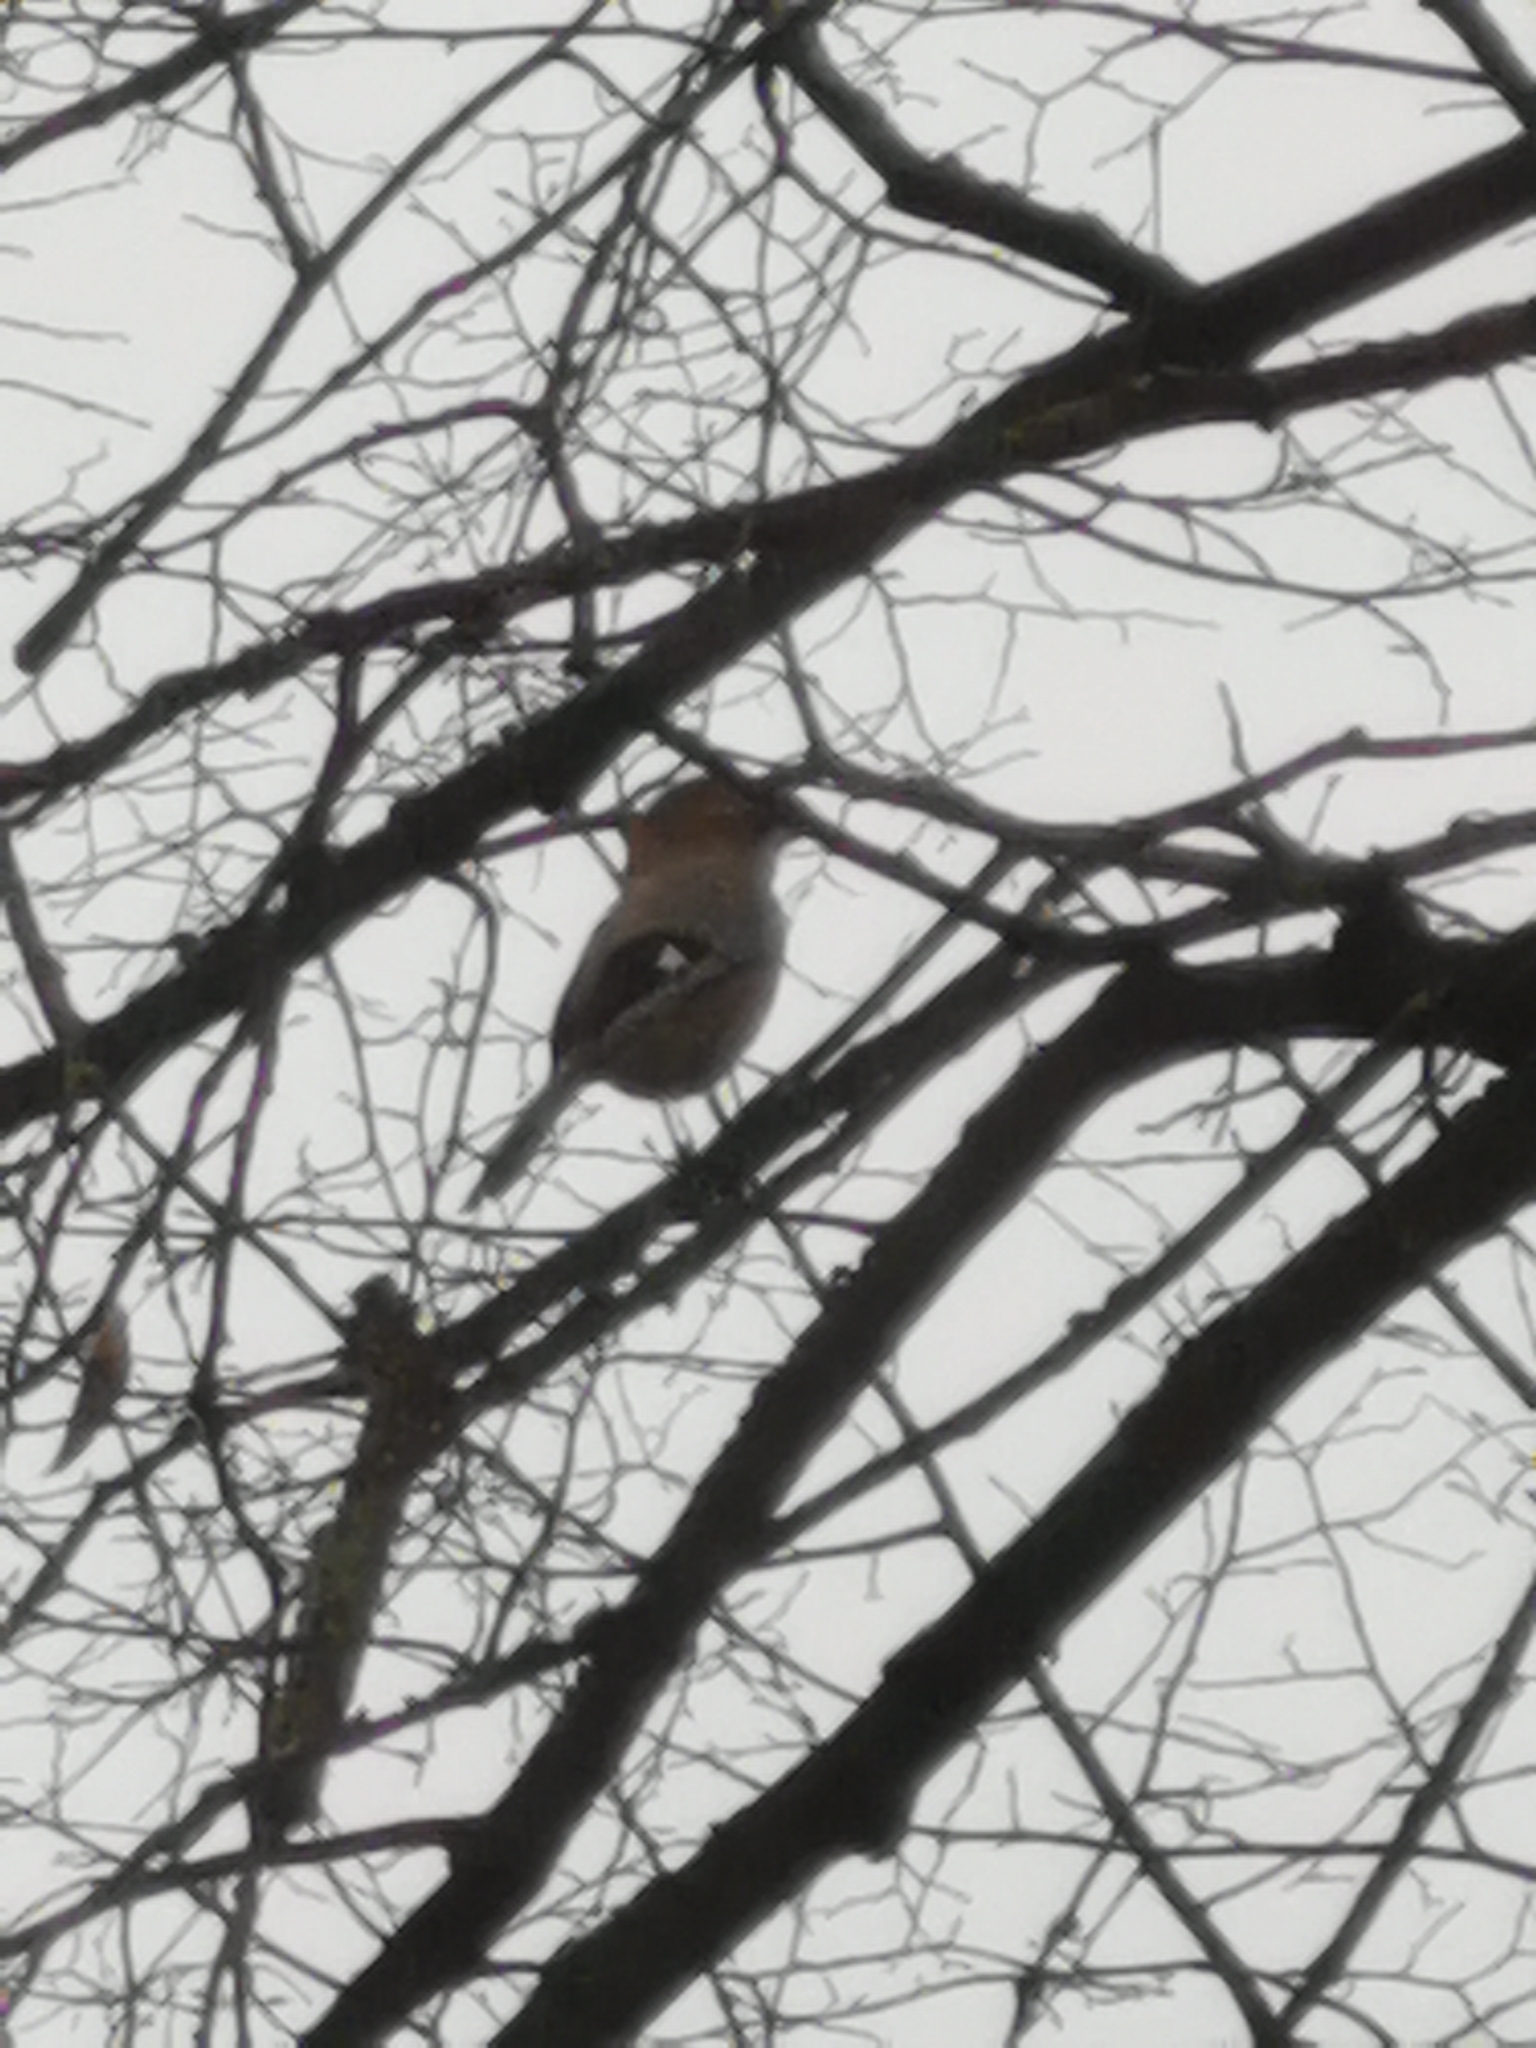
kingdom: Animalia
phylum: Chordata
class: Aves
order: Passeriformes
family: Corvidae
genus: Garrulus
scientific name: Garrulus glandarius
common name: Eurasian jay
